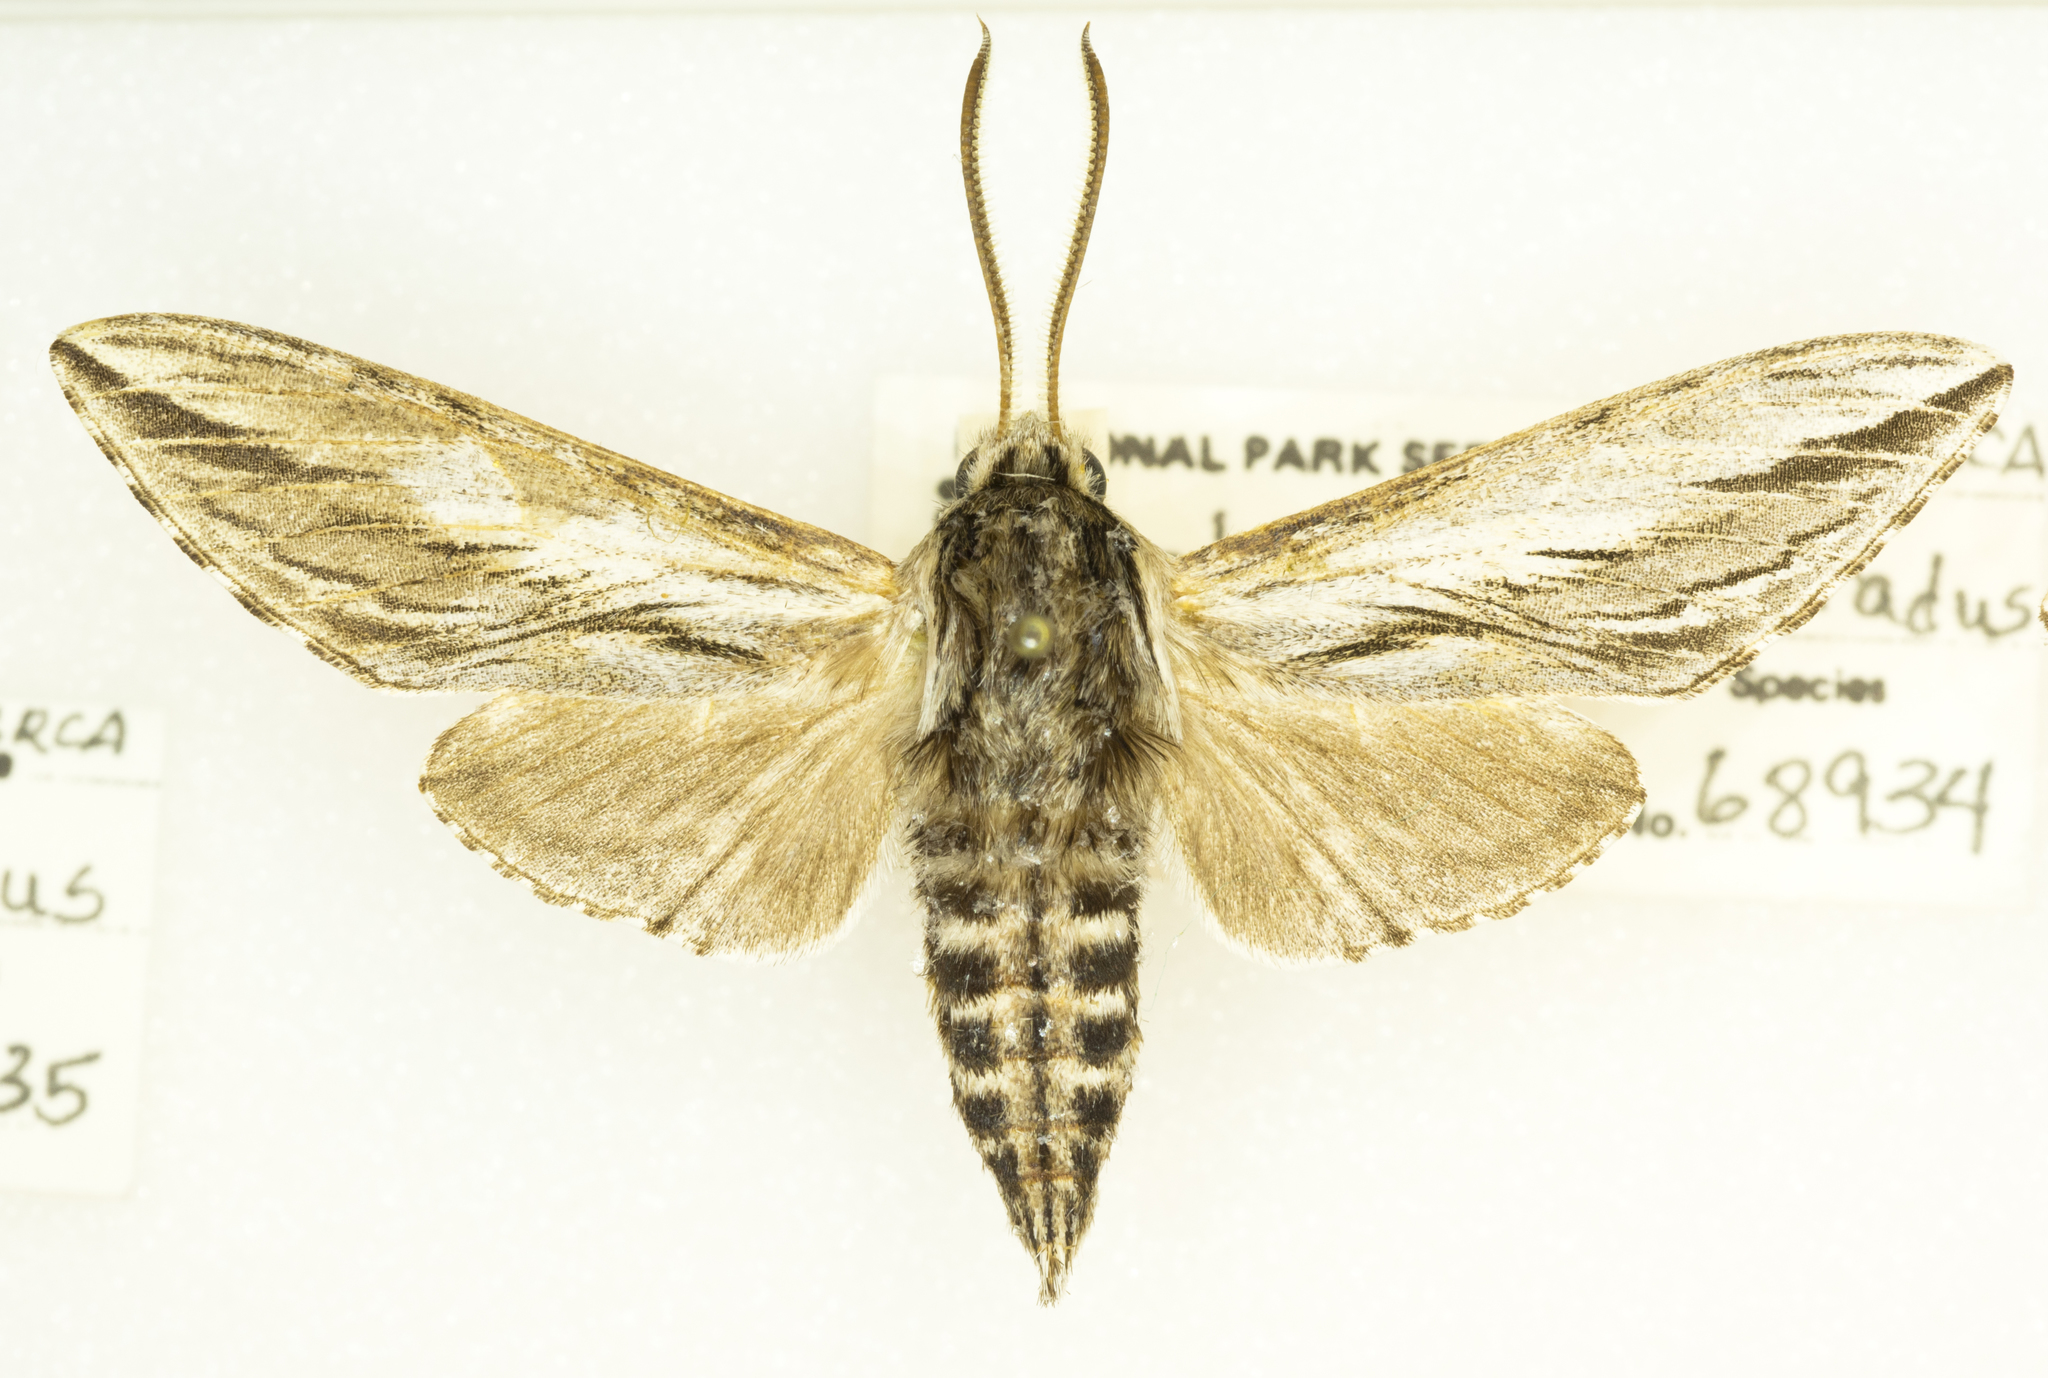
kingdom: Animalia
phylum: Arthropoda
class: Insecta
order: Lepidoptera
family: Sphingidae
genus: Sphinx
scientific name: Sphinx dollii
